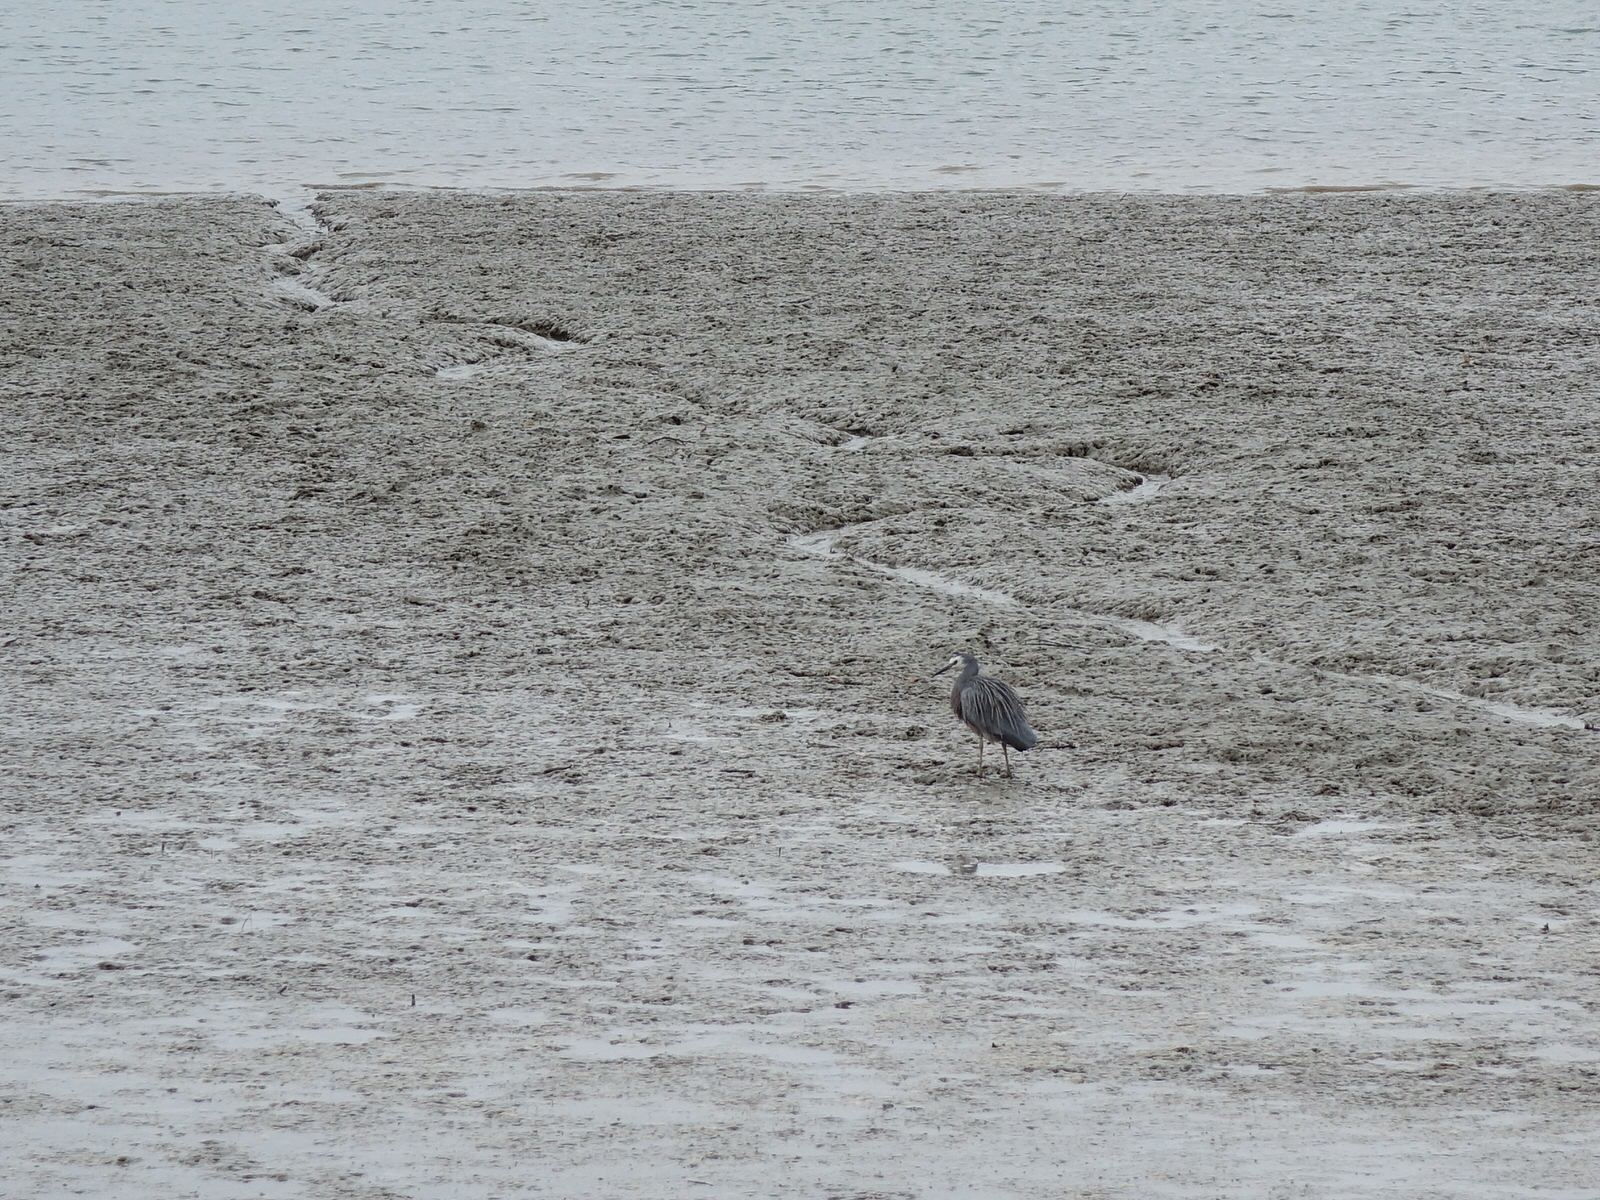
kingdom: Animalia
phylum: Chordata
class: Aves
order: Pelecaniformes
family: Ardeidae
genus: Egretta
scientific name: Egretta novaehollandiae
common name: White-faced heron
